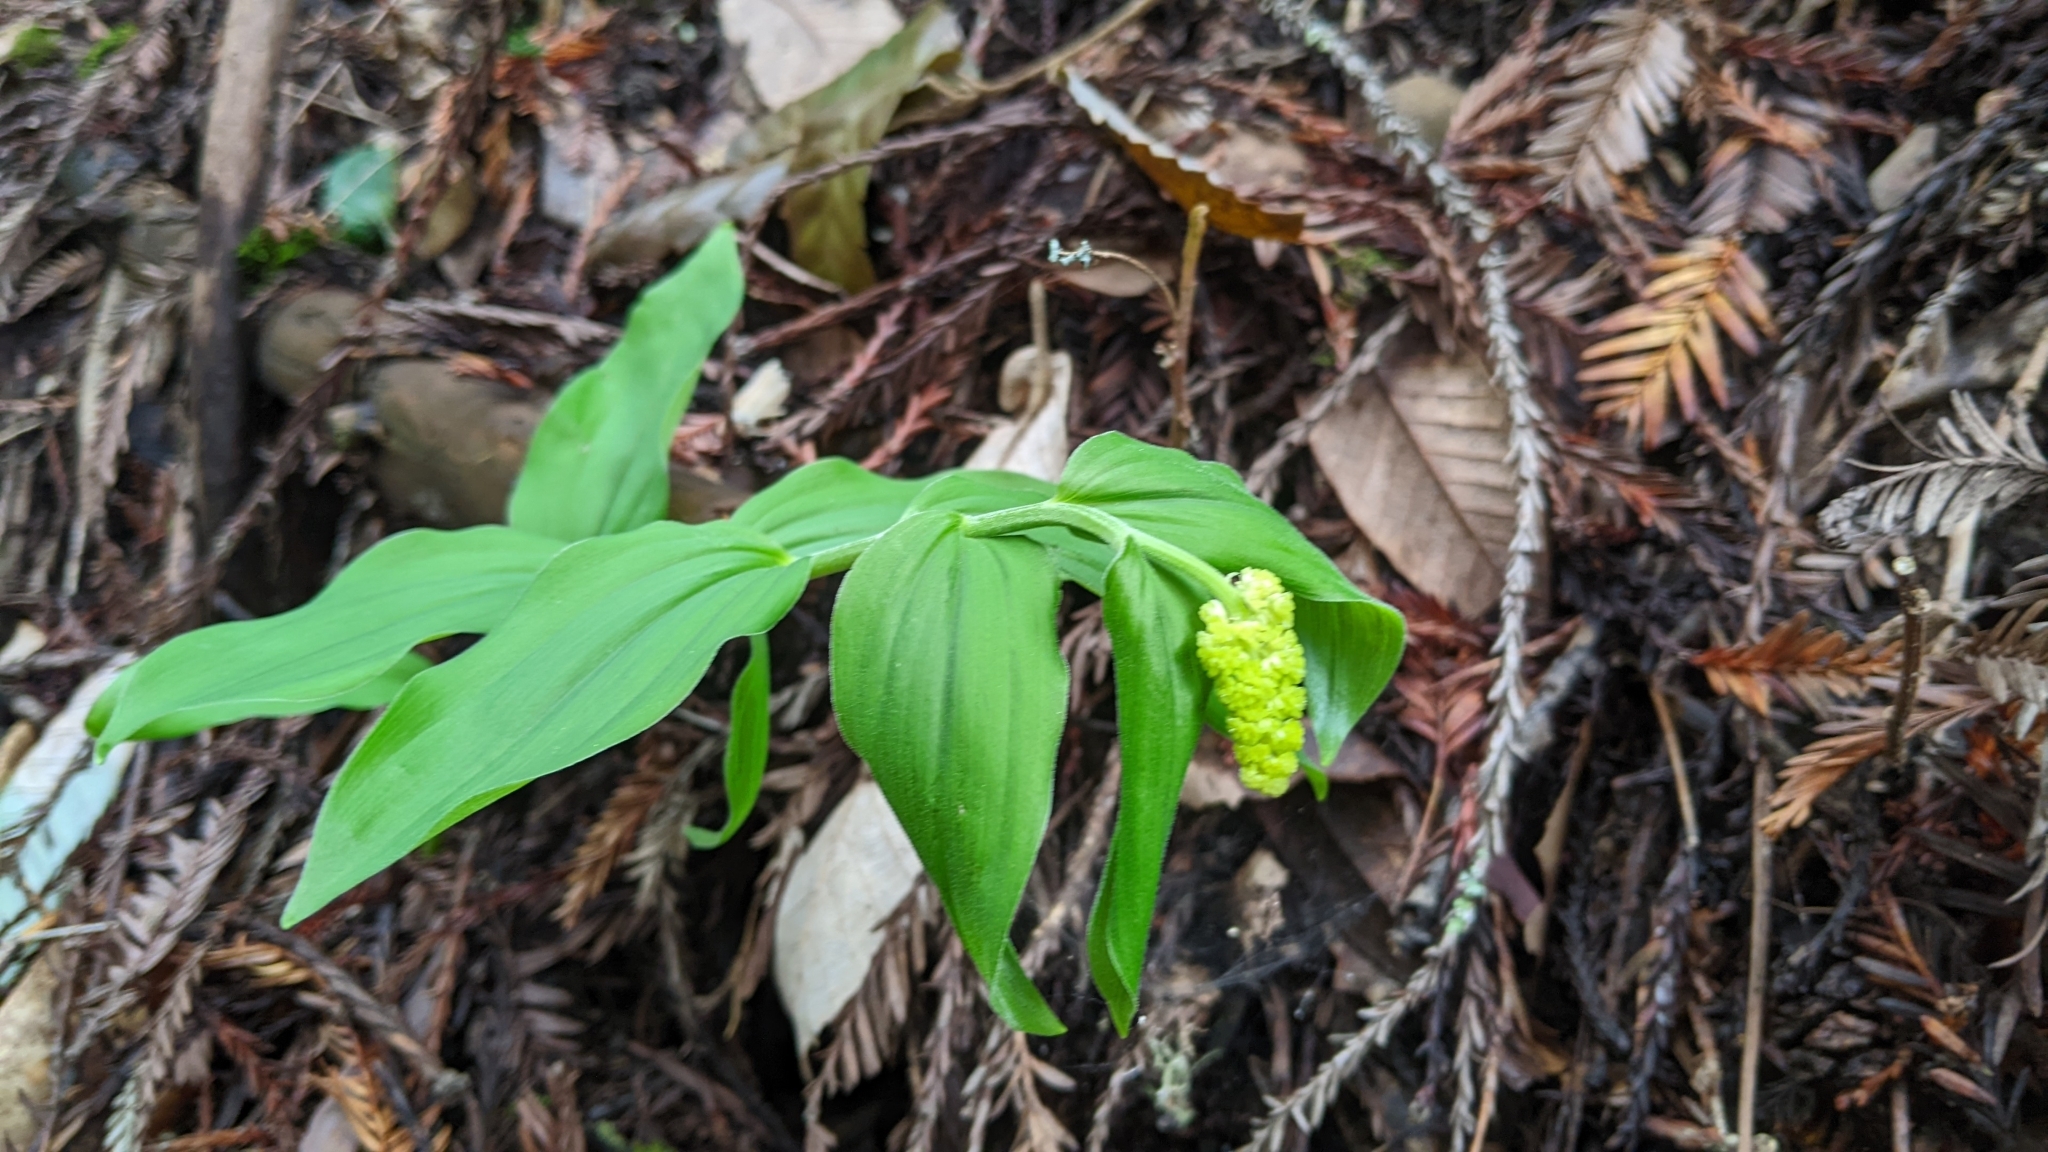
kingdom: Plantae
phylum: Tracheophyta
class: Liliopsida
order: Asparagales
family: Asparagaceae
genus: Maianthemum
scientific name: Maianthemum racemosum
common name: False spikenard
